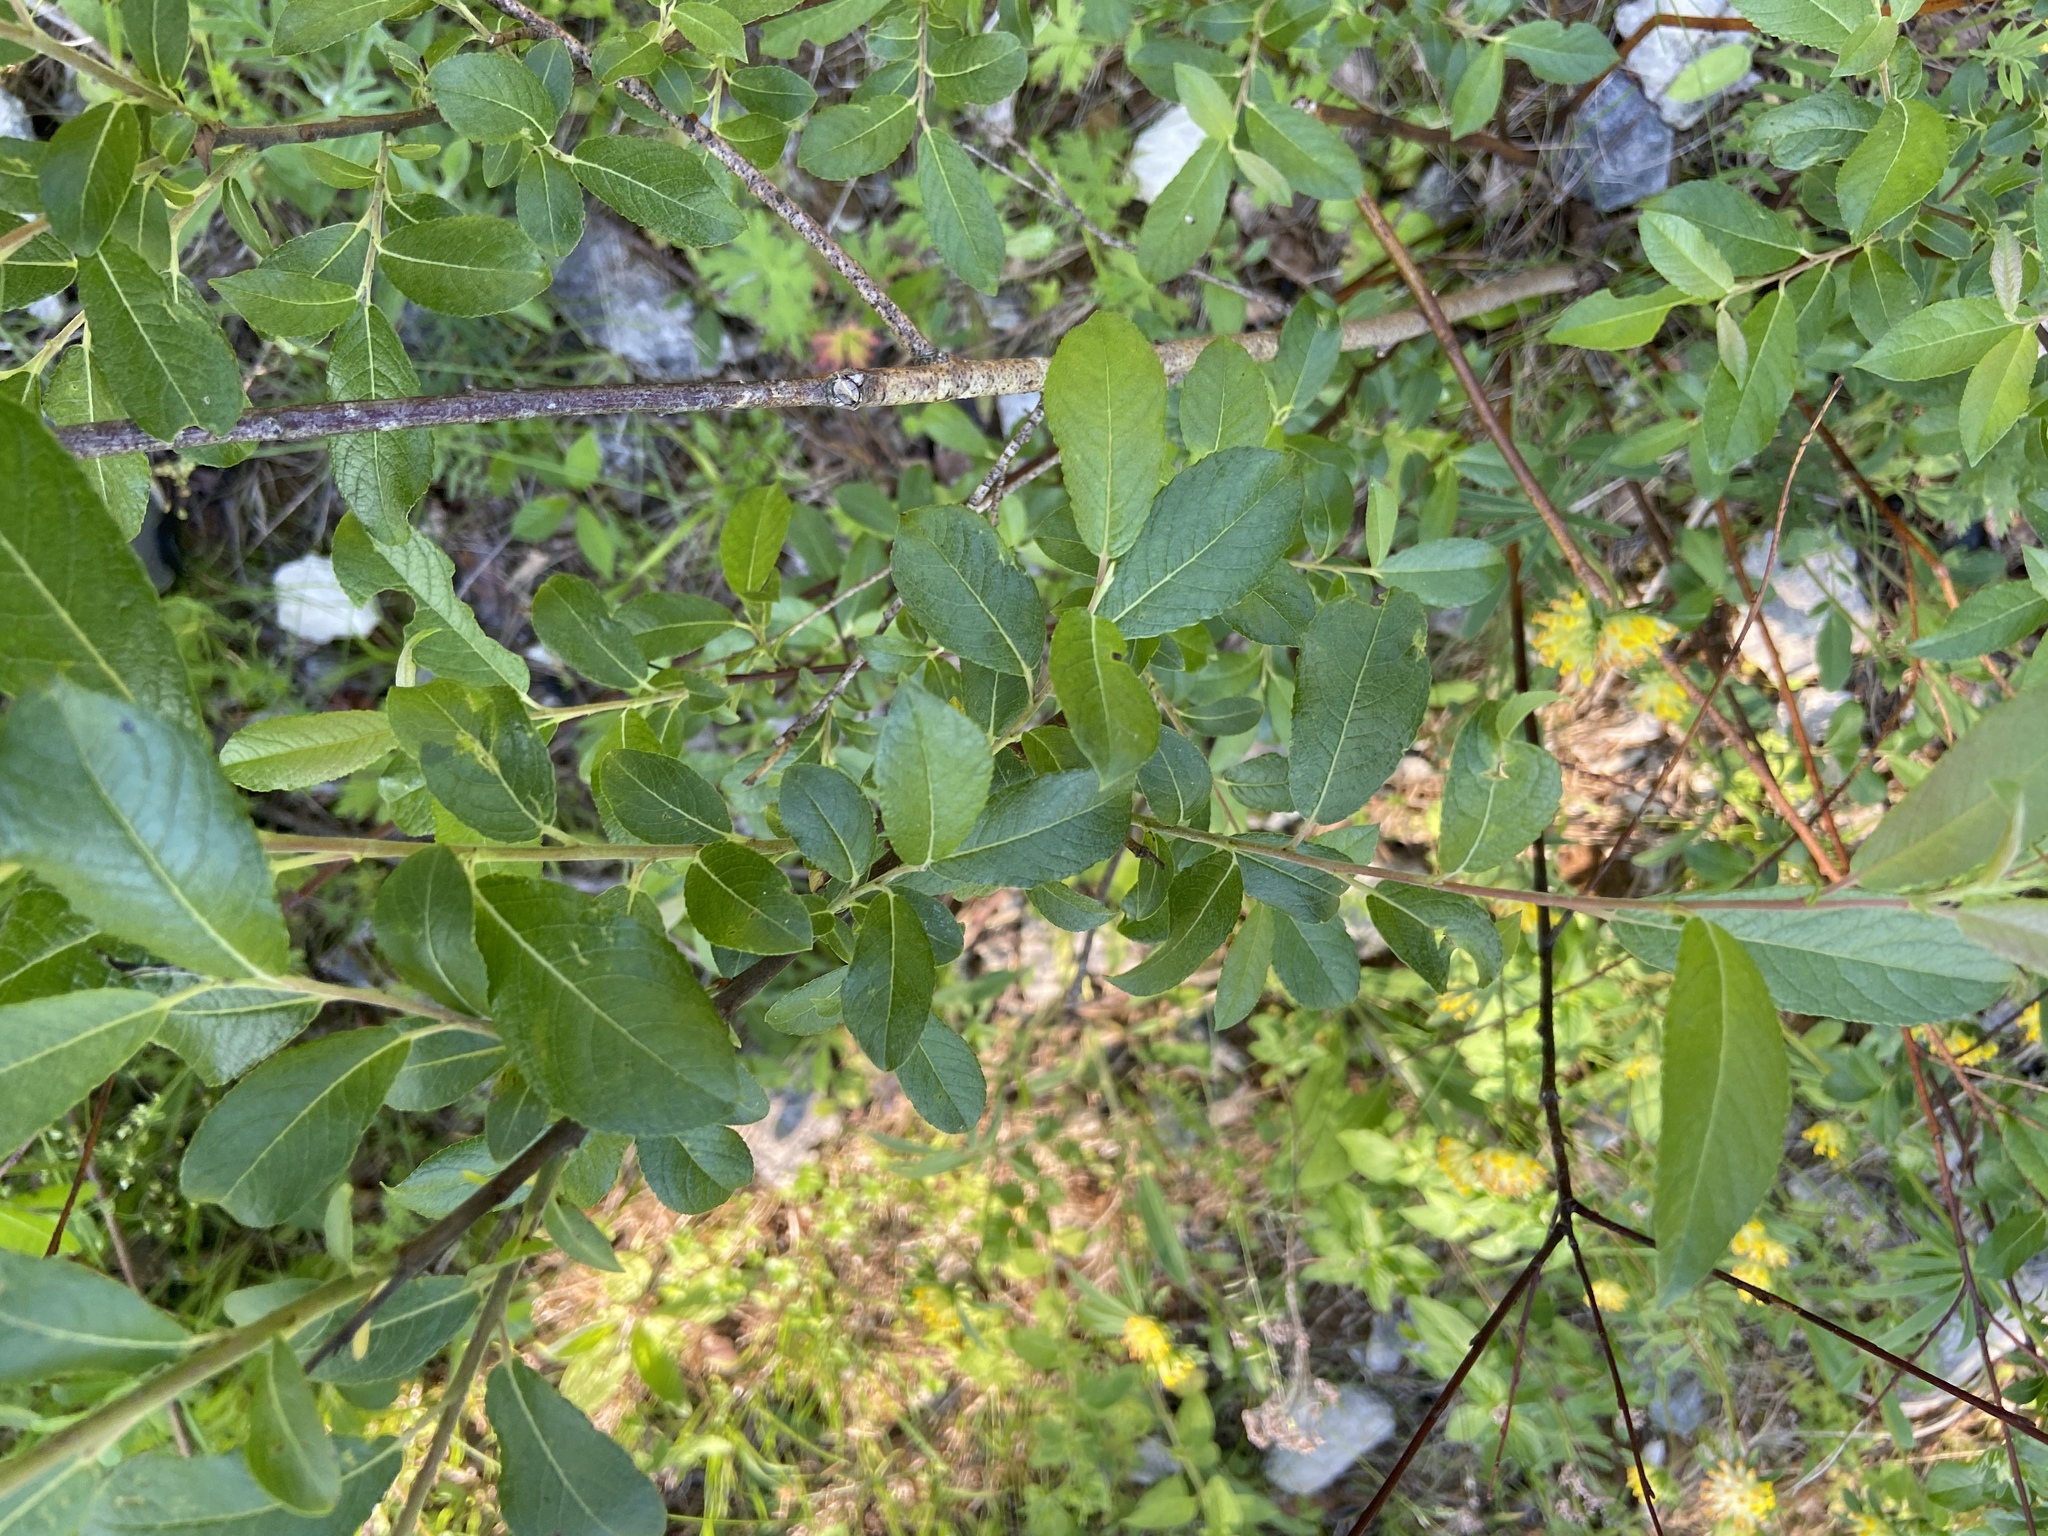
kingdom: Plantae
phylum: Tracheophyta
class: Magnoliopsida
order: Malpighiales
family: Salicaceae
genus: Salix
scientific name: Salix myrsinifolia
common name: Dark-leaved willow
